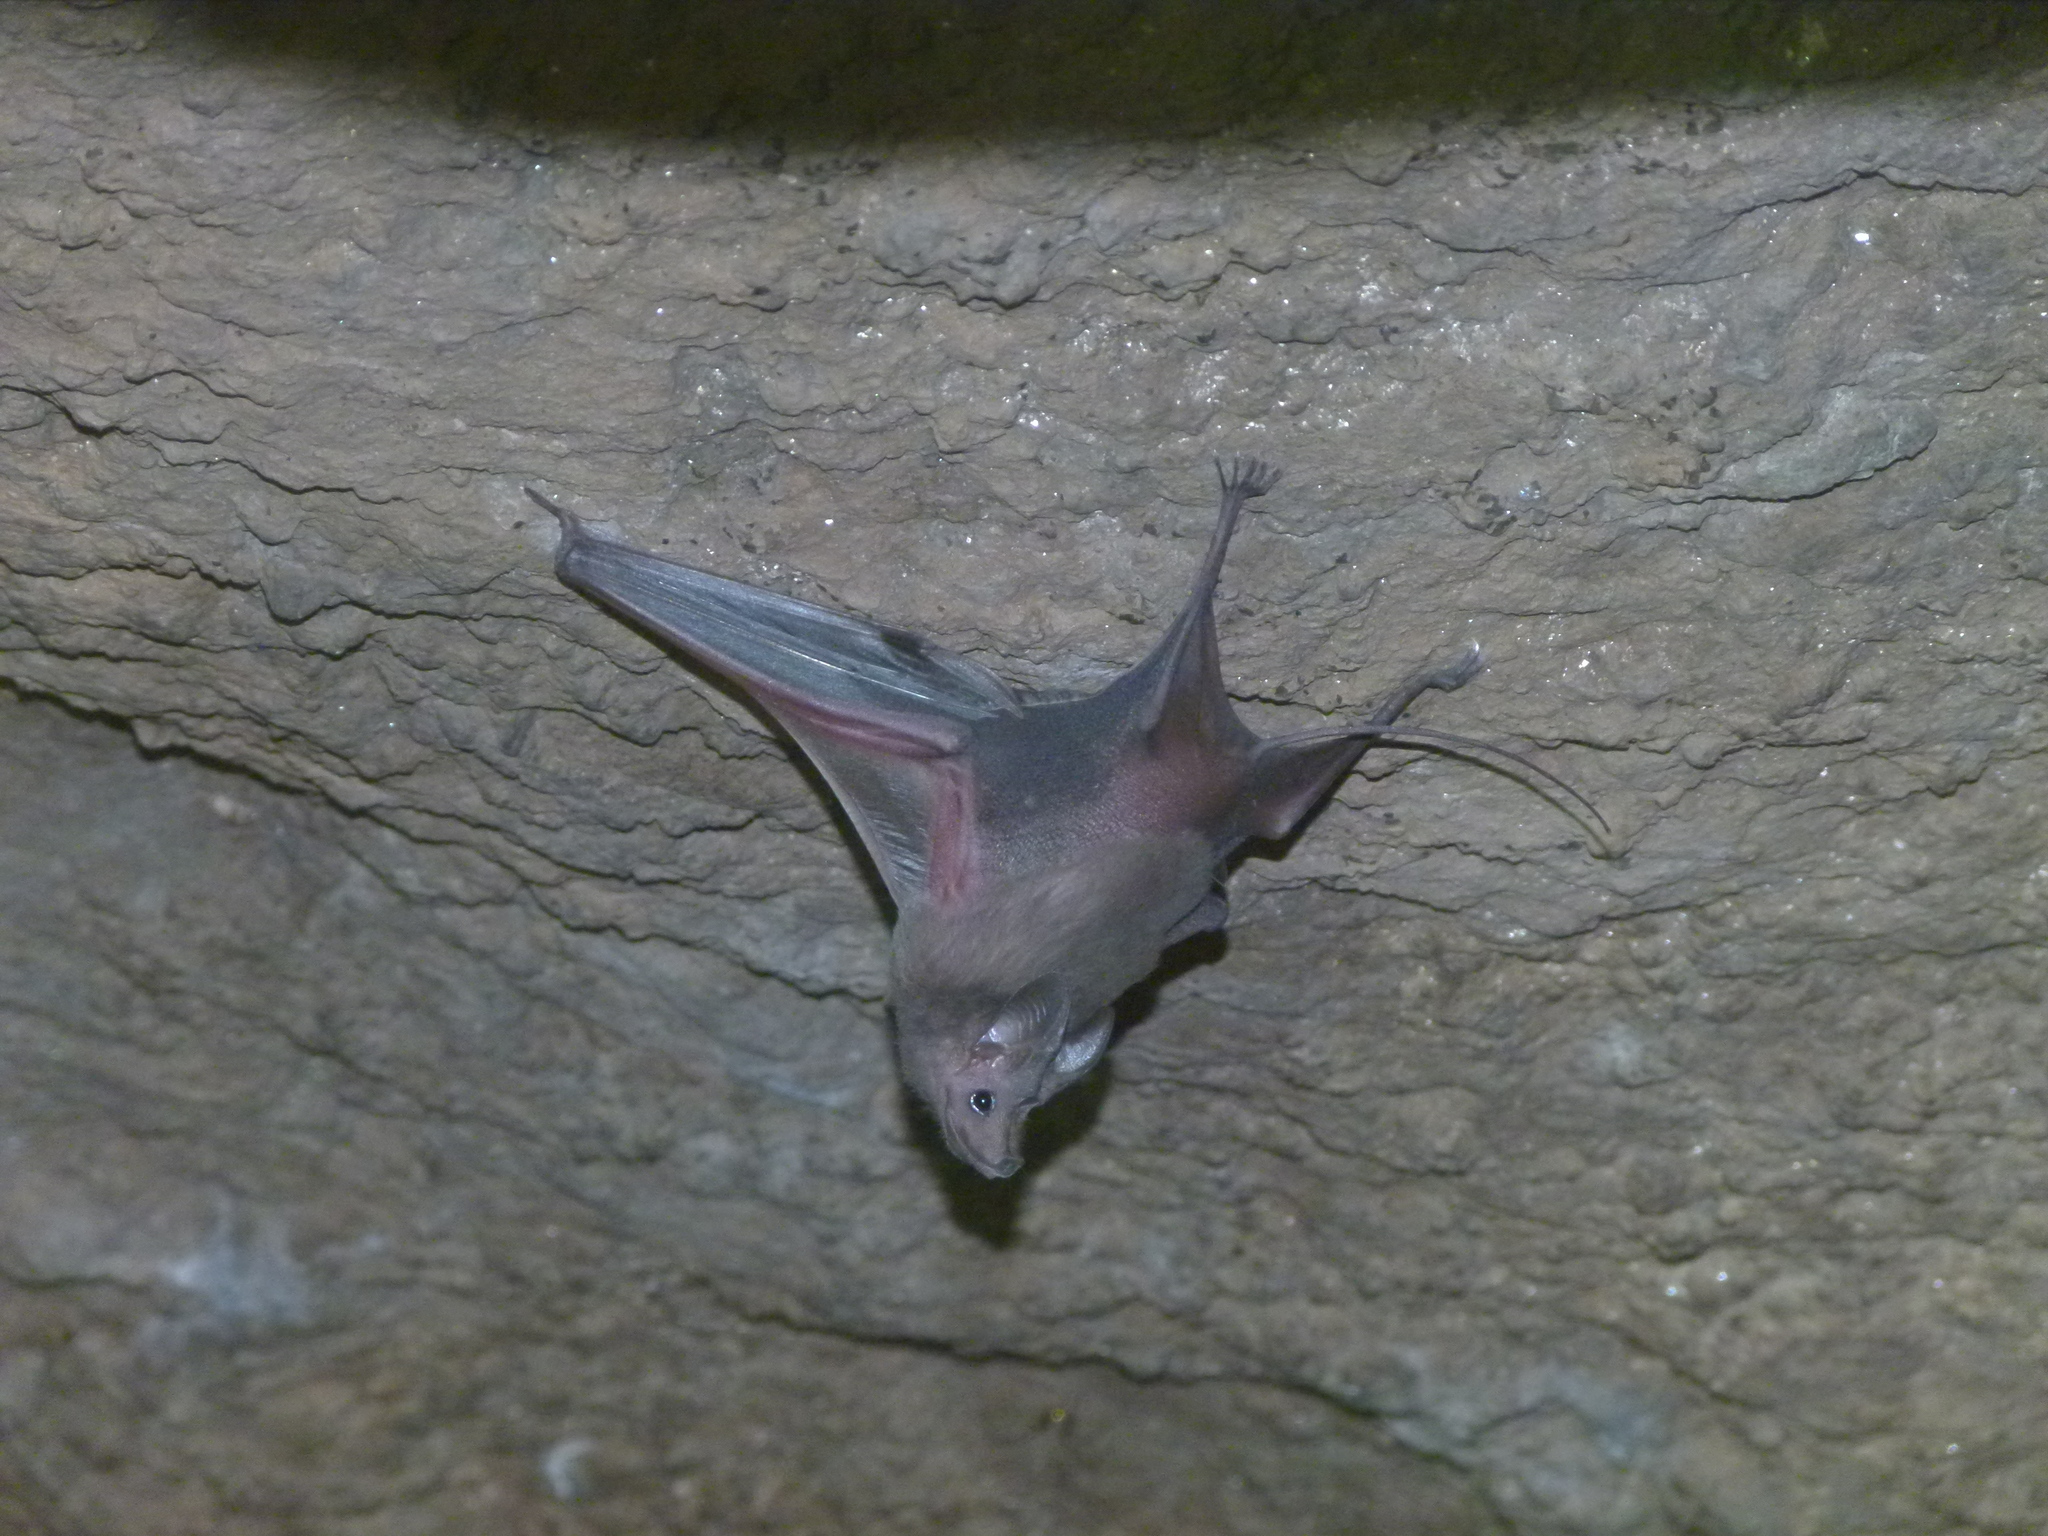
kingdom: Animalia
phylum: Chordata
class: Mammalia
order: Chiroptera
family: Rhinopomatidae
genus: Rhinopoma
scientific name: Rhinopoma hardwickii
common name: Lesser mouse-tailed bat
